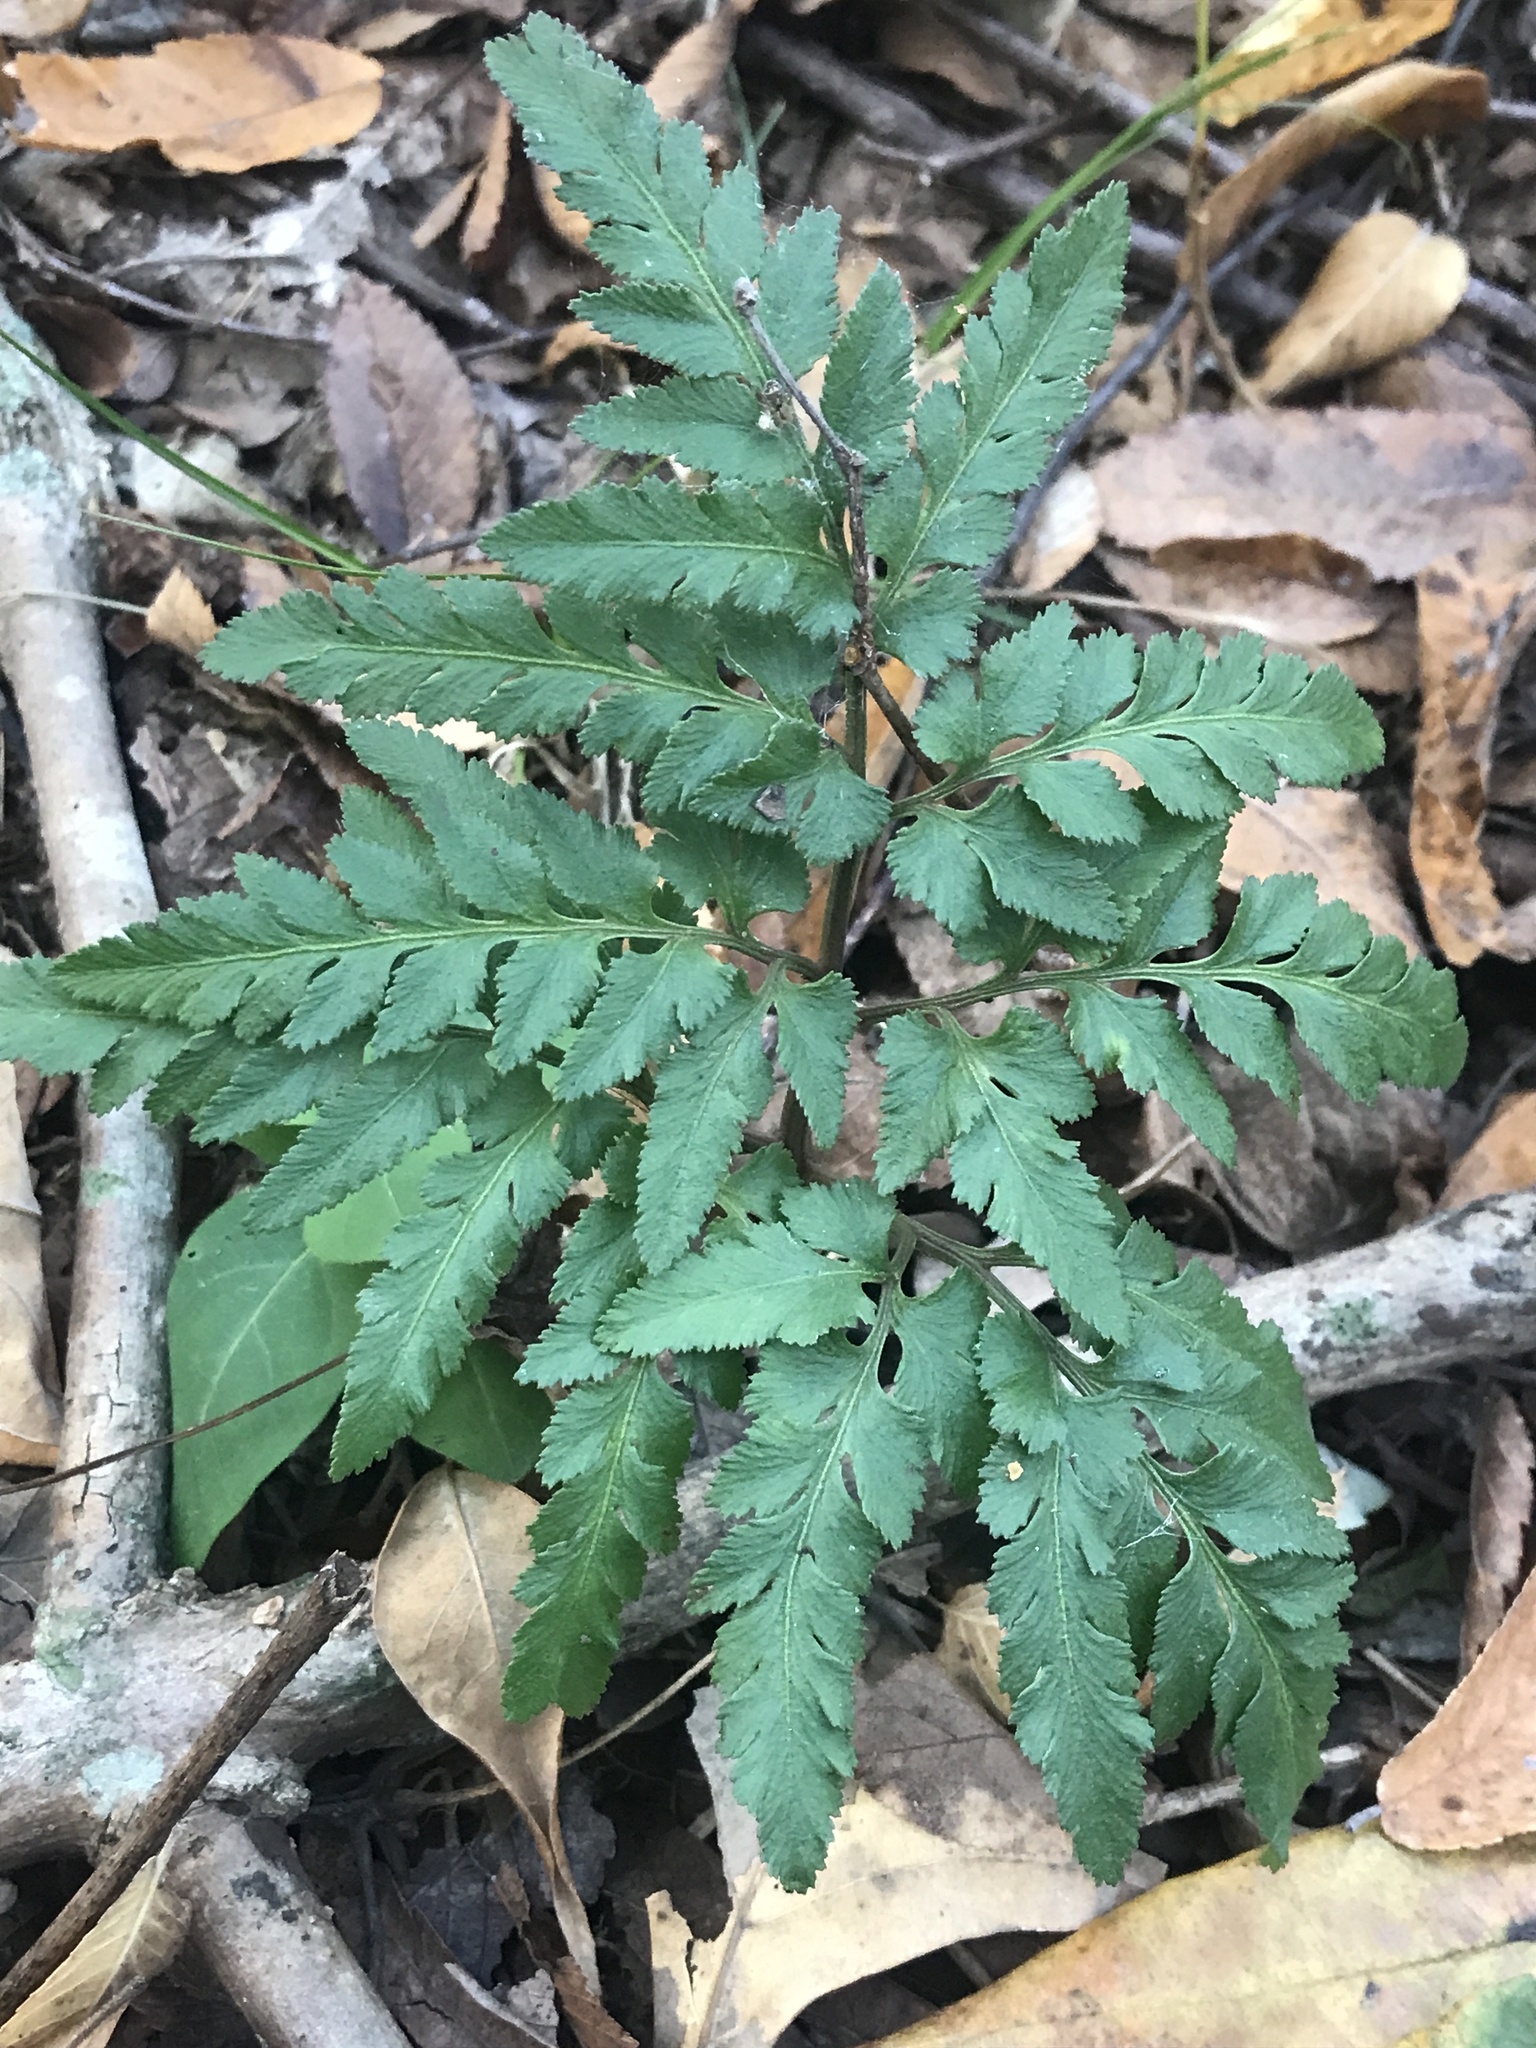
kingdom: Plantae
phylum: Tracheophyta
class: Polypodiopsida
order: Ophioglossales
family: Ophioglossaceae
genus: Sceptridium
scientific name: Sceptridium dissectum
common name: Cut-leaved grapefern
